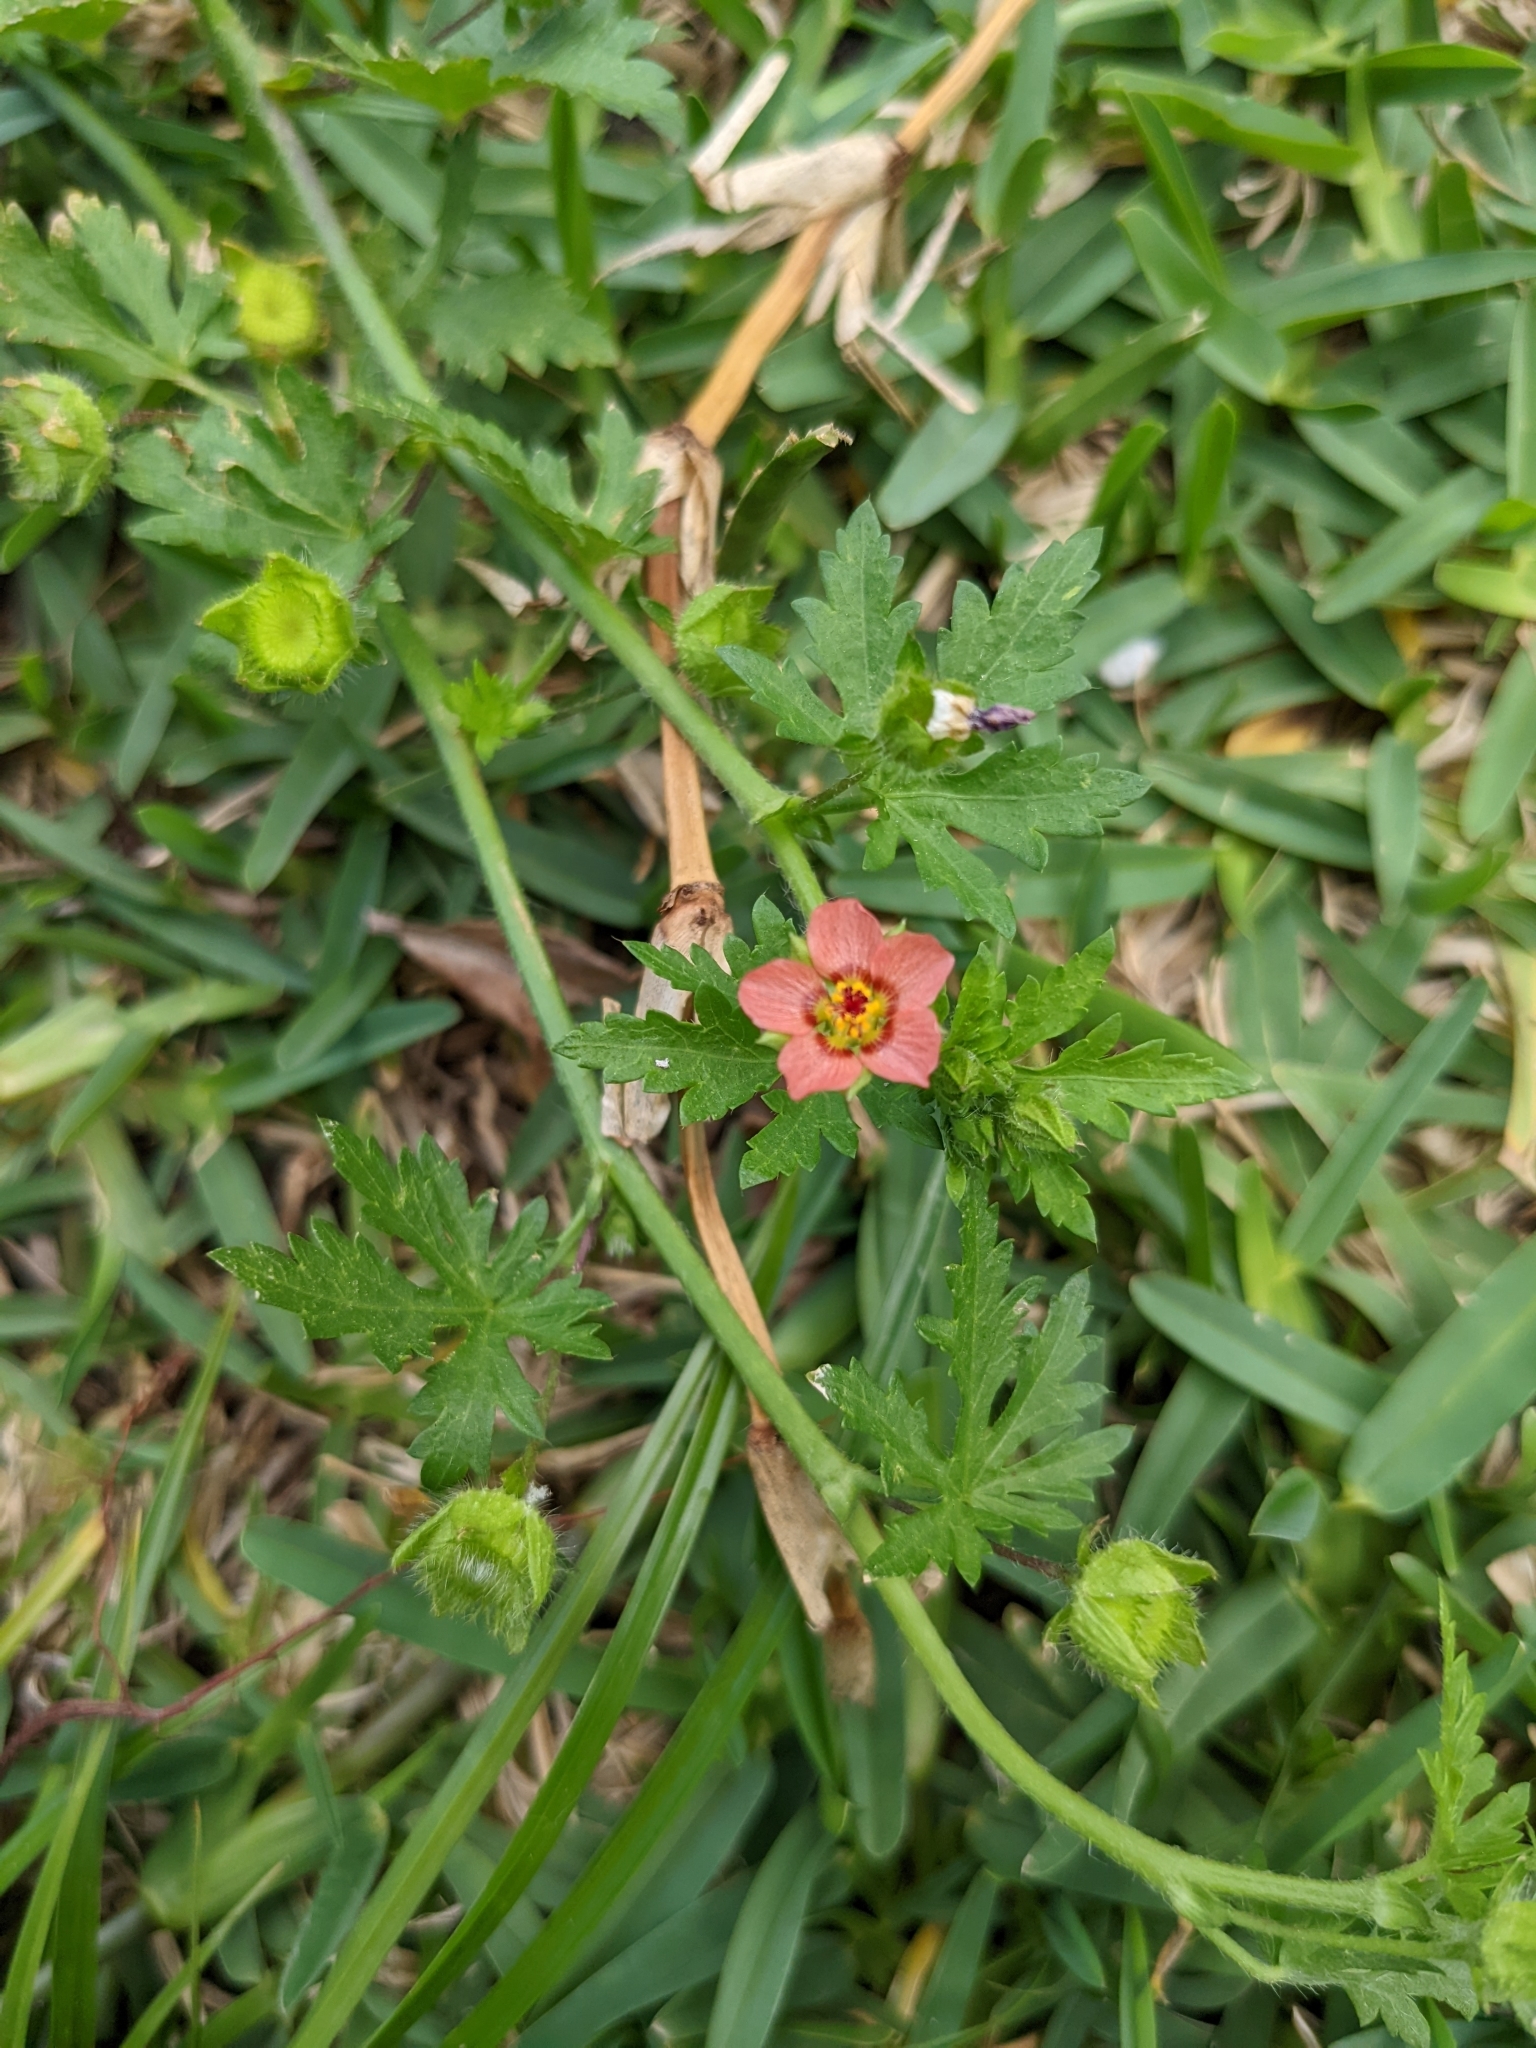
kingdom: Plantae
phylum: Tracheophyta
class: Magnoliopsida
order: Malvales
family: Malvaceae
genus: Modiola
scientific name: Modiola caroliniana
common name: Carolina bristlemallow
